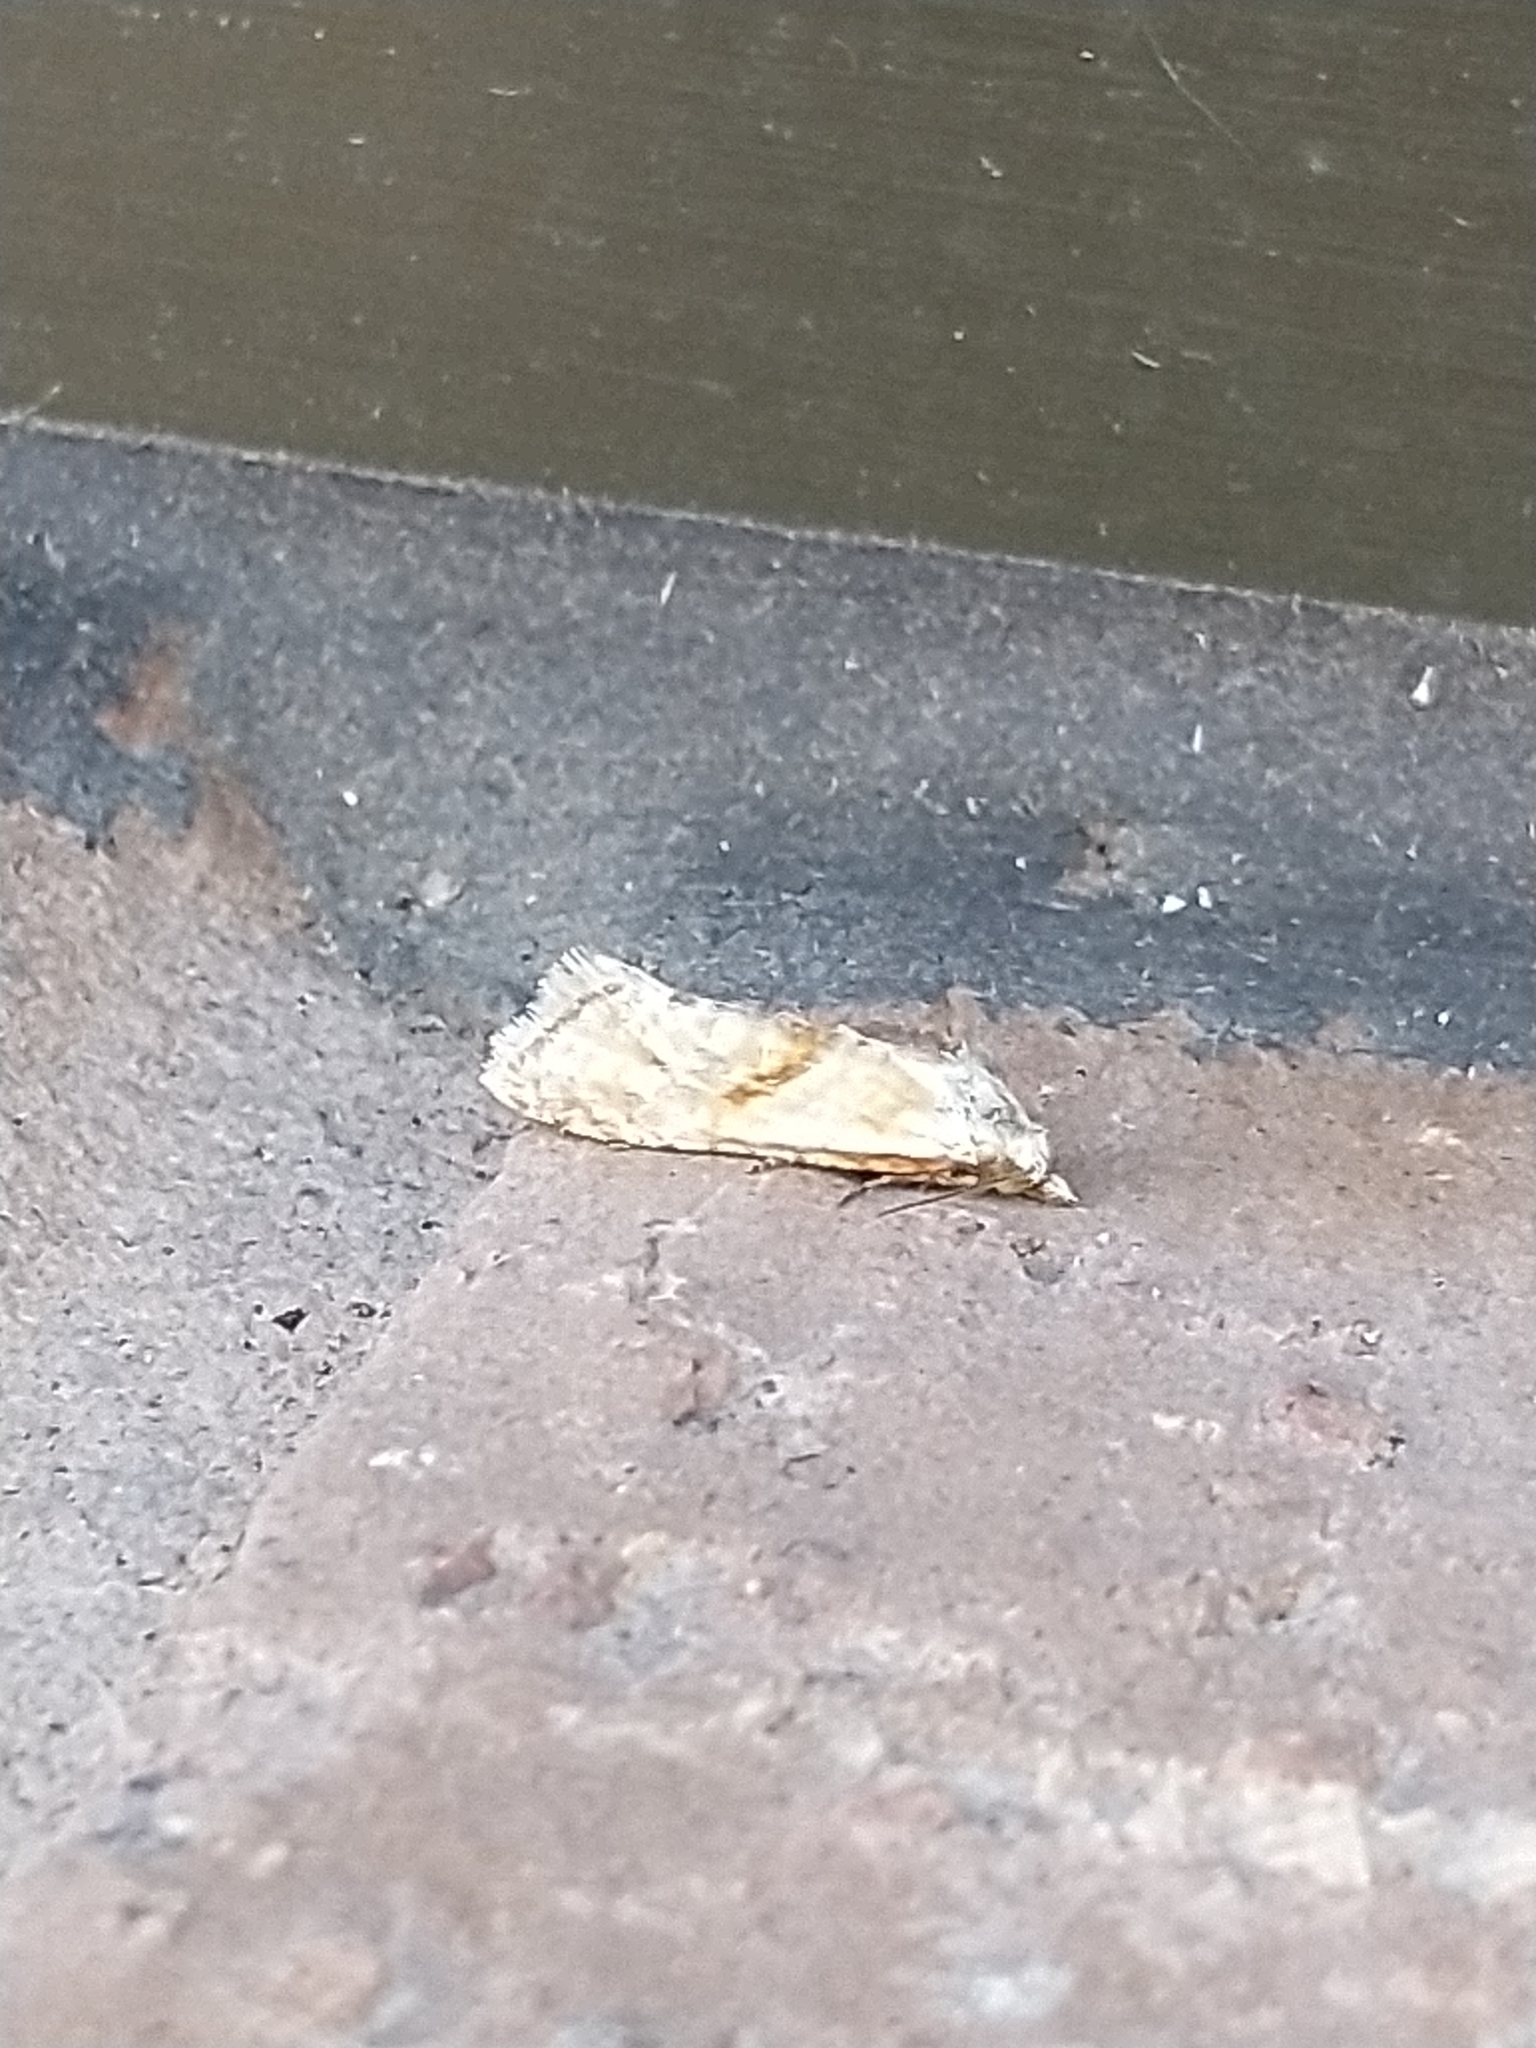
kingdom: Animalia
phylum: Arthropoda
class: Insecta
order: Lepidoptera
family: Tortricidae
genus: Cochylimorpha
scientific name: Cochylimorpha straminea
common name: Straw conch
